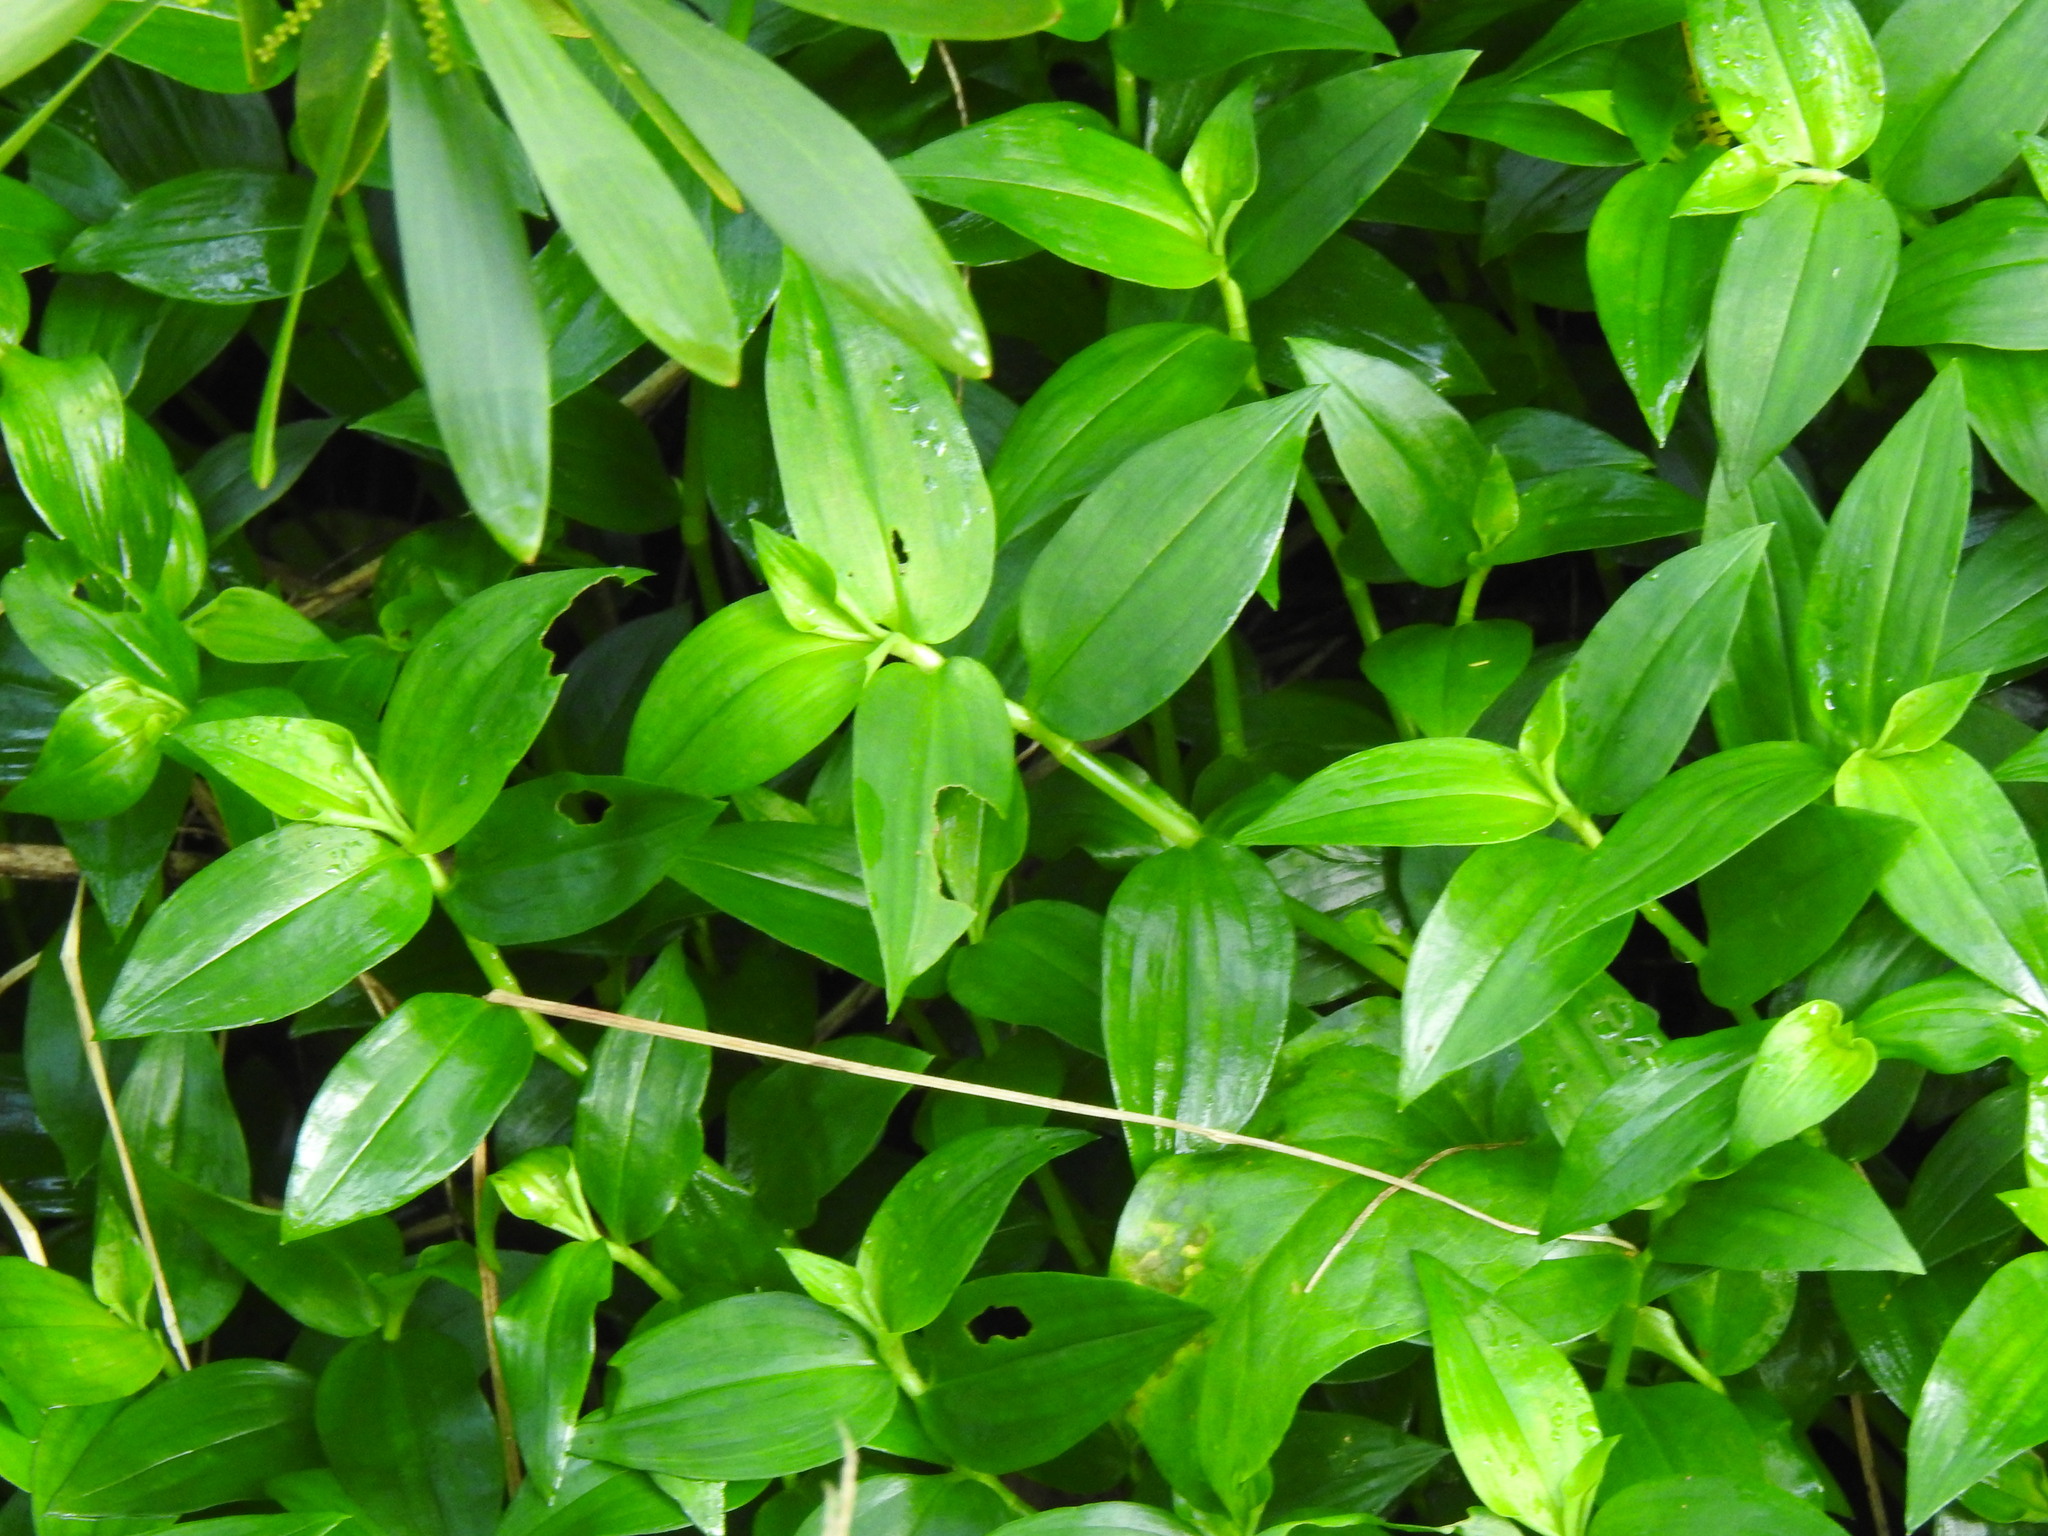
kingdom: Plantae
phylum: Tracheophyta
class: Liliopsida
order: Commelinales
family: Commelinaceae
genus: Tradescantia
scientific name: Tradescantia fluminensis
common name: Wandering-jew
